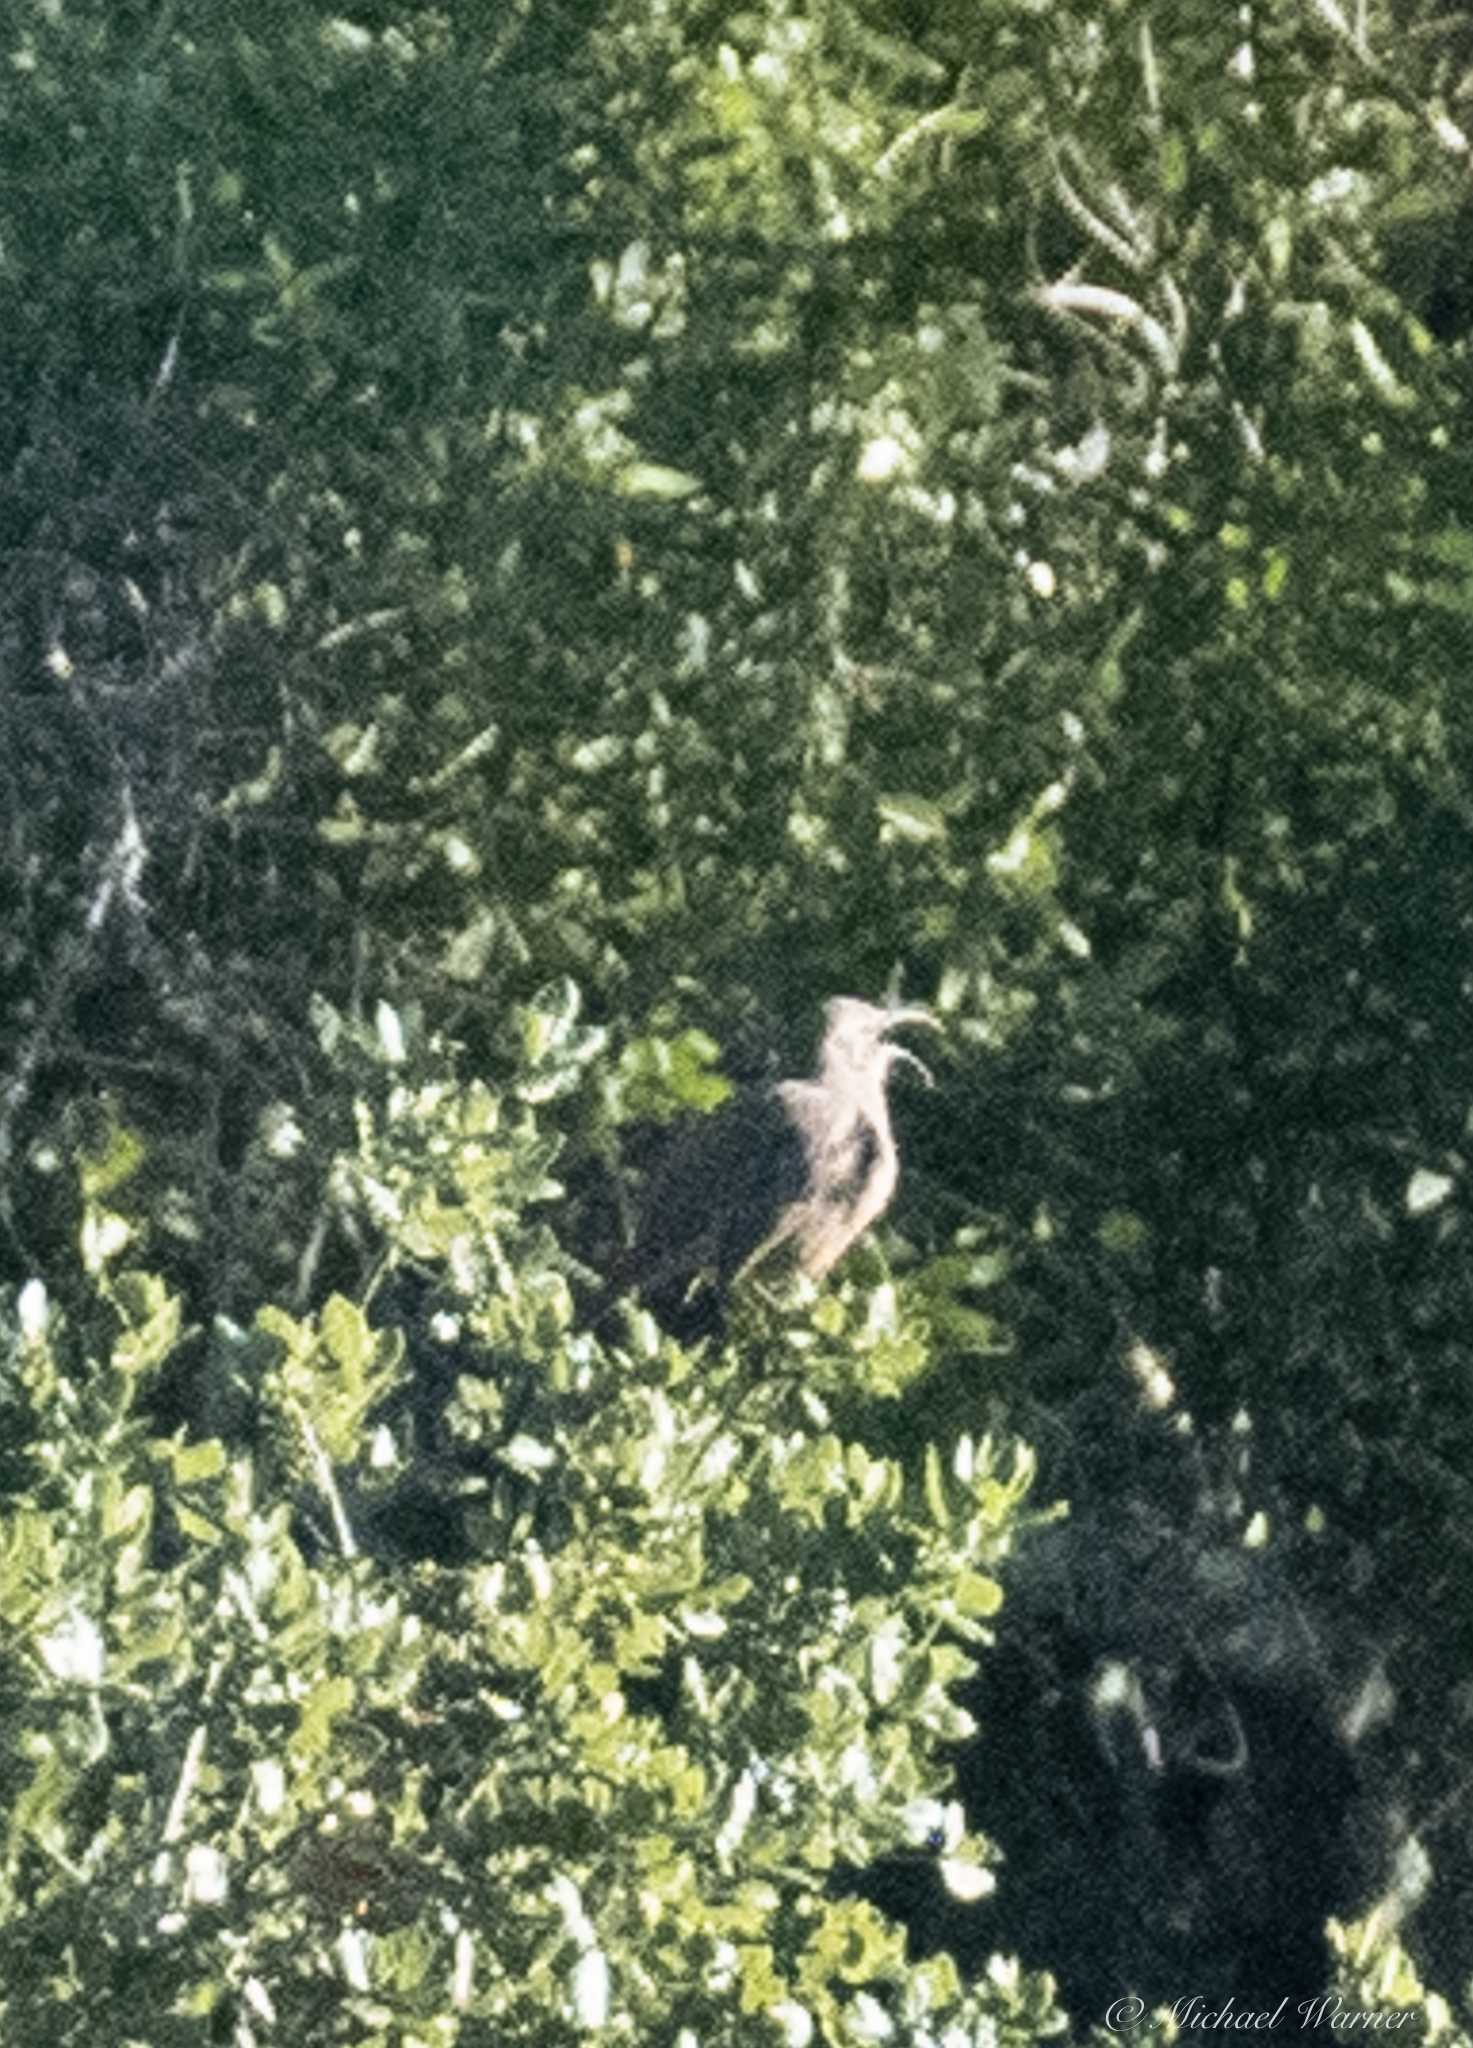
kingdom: Animalia
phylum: Chordata
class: Aves
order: Passeriformes
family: Mimidae
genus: Toxostoma
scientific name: Toxostoma redivivum
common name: California thrasher
